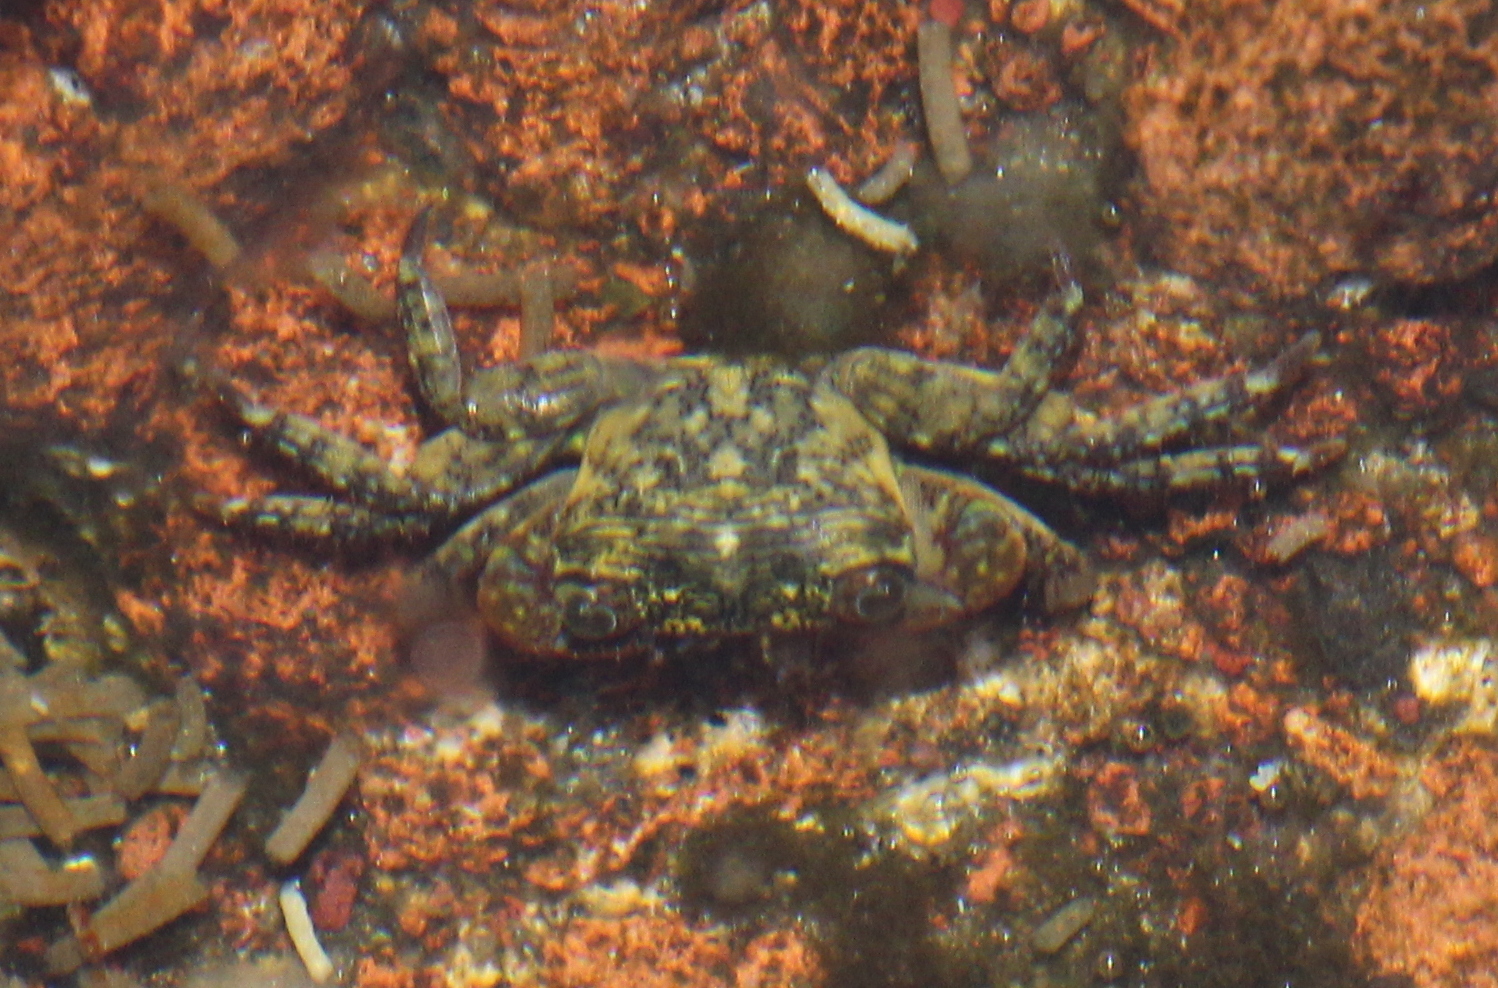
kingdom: Animalia
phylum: Arthropoda
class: Malacostraca
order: Decapoda
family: Grapsidae
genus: Pachygrapsus
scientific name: Pachygrapsus transversus
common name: Mottled shore crab
